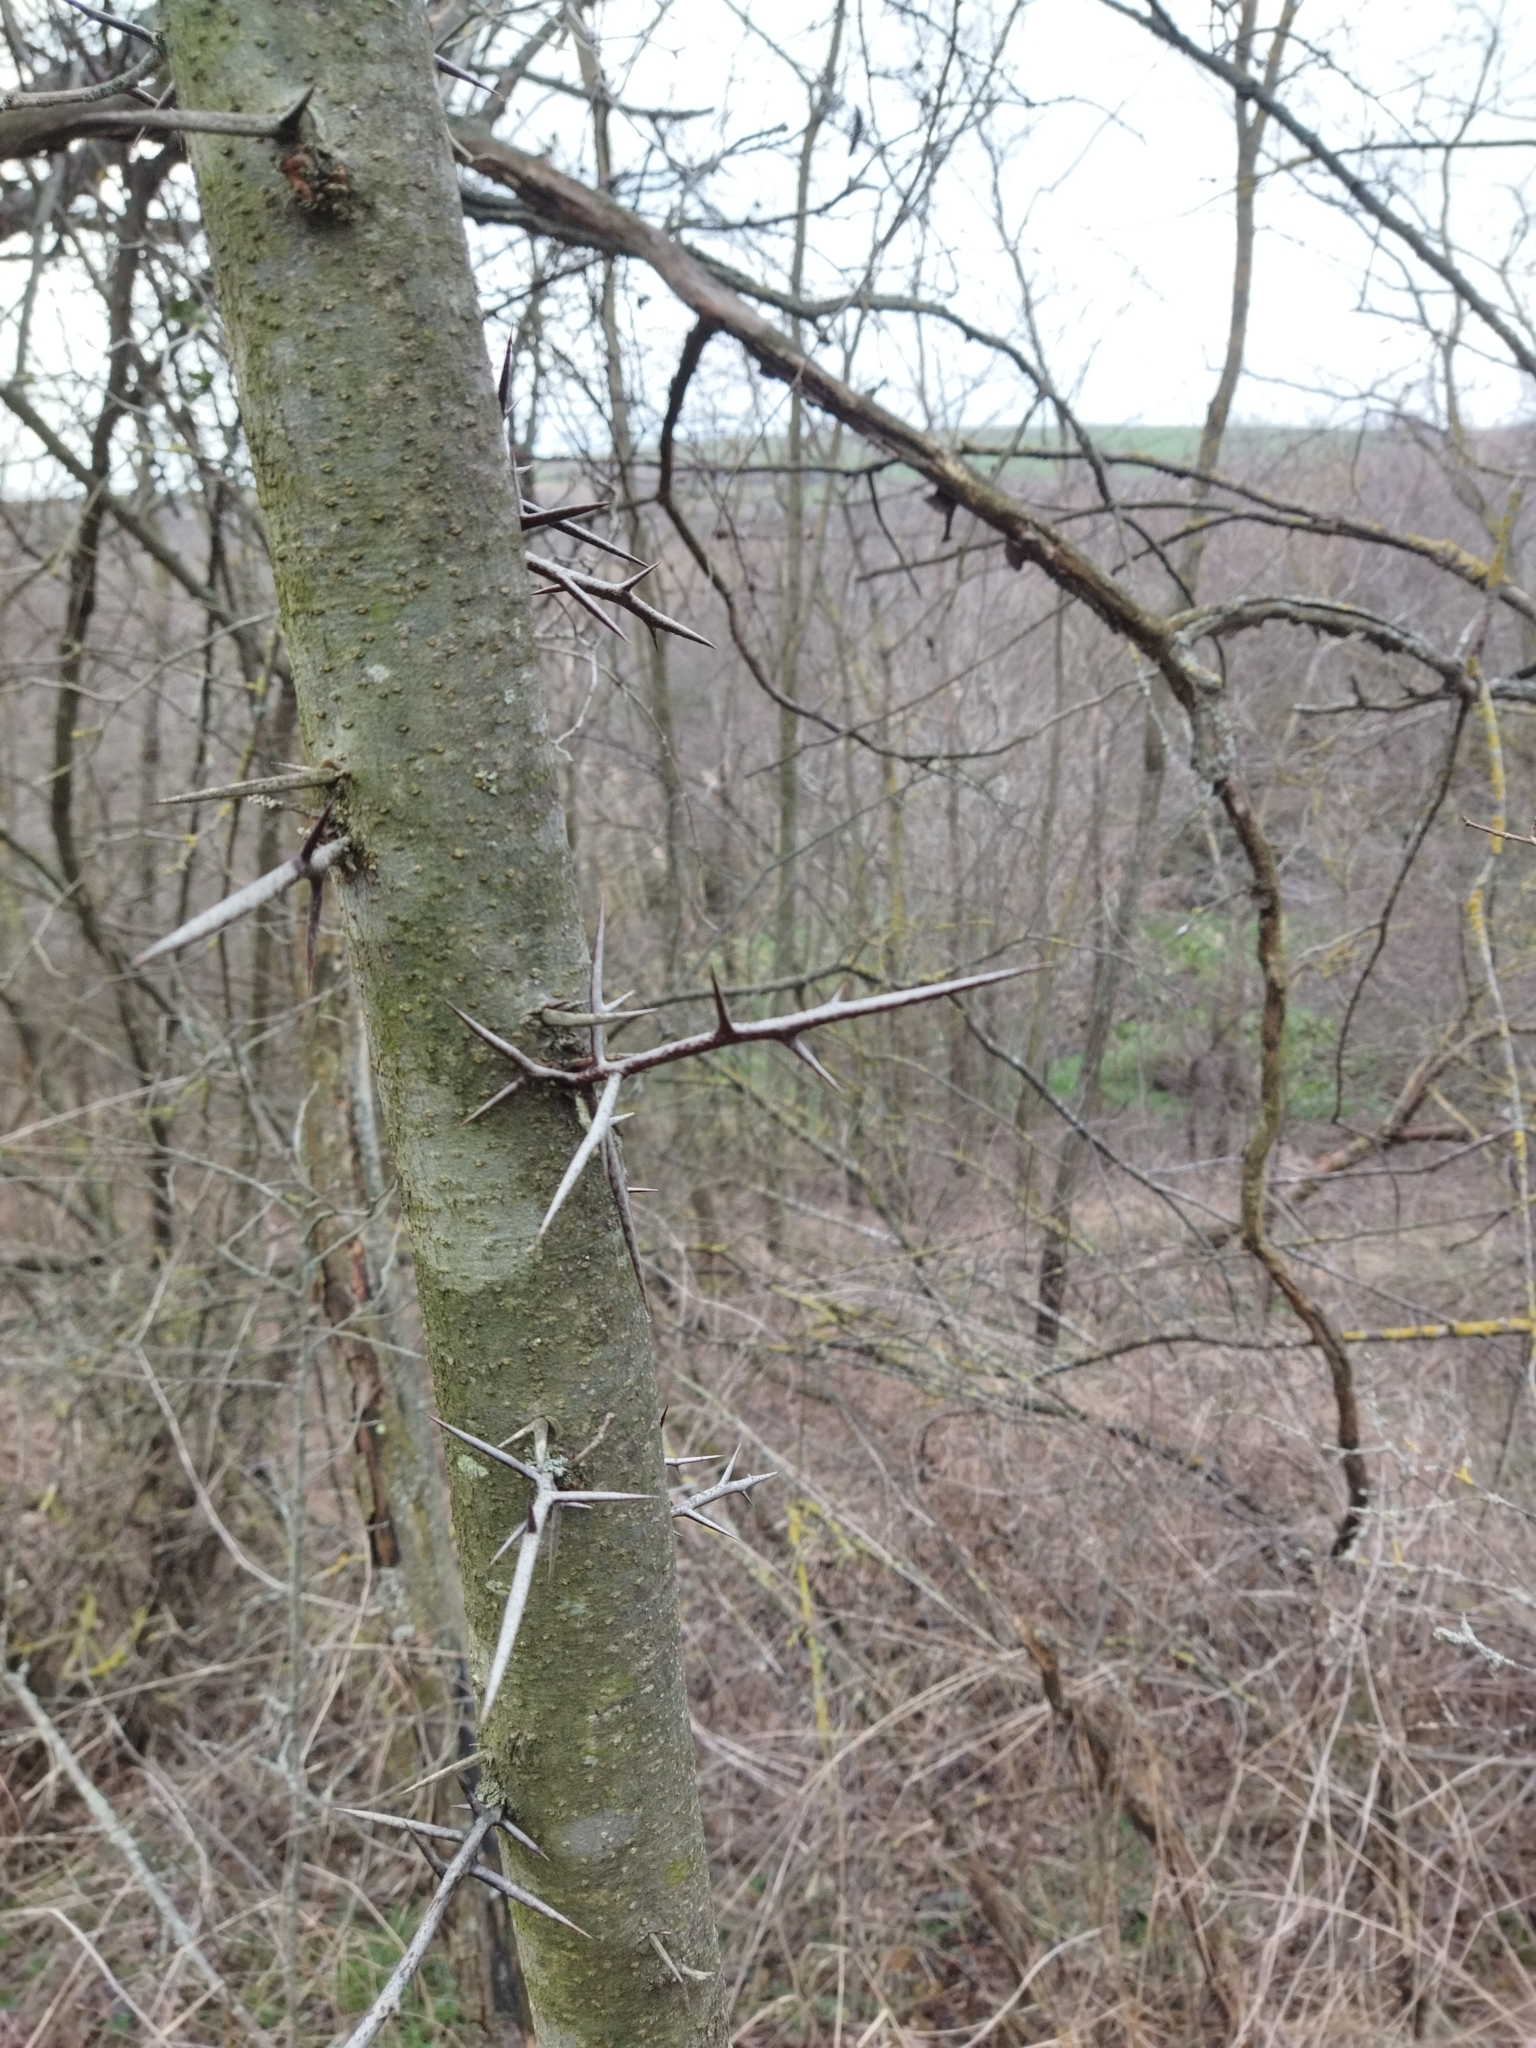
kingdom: Plantae
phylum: Tracheophyta
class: Magnoliopsida
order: Fabales
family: Fabaceae
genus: Gleditsia
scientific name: Gleditsia triacanthos
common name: Common honeylocust
